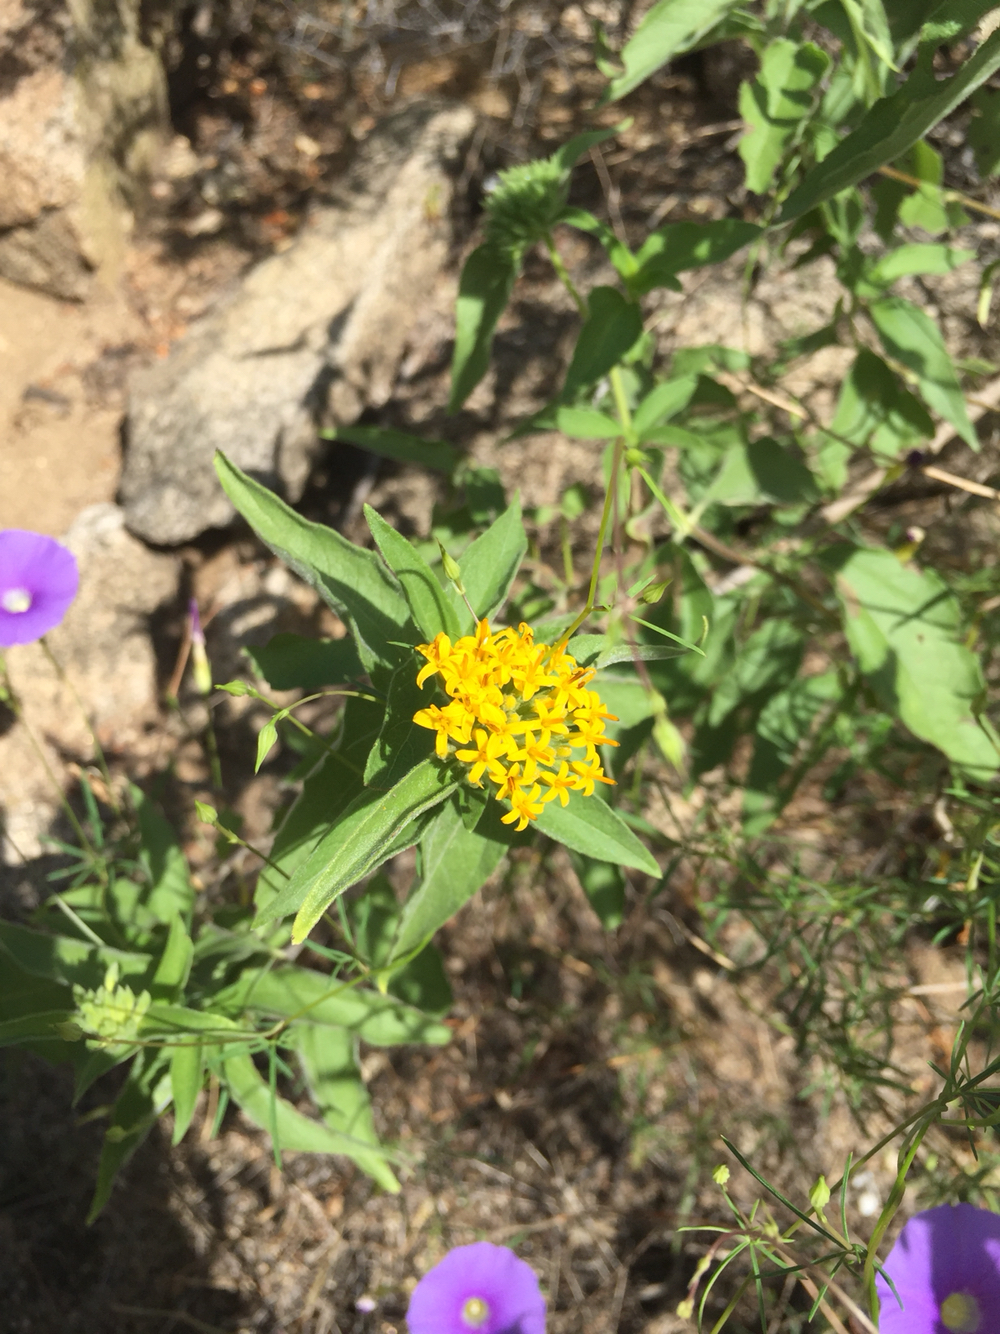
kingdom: Plantae
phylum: Tracheophyta
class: Magnoliopsida
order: Asterales
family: Asteraceae
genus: Lagascea
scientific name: Lagascea decipiens
